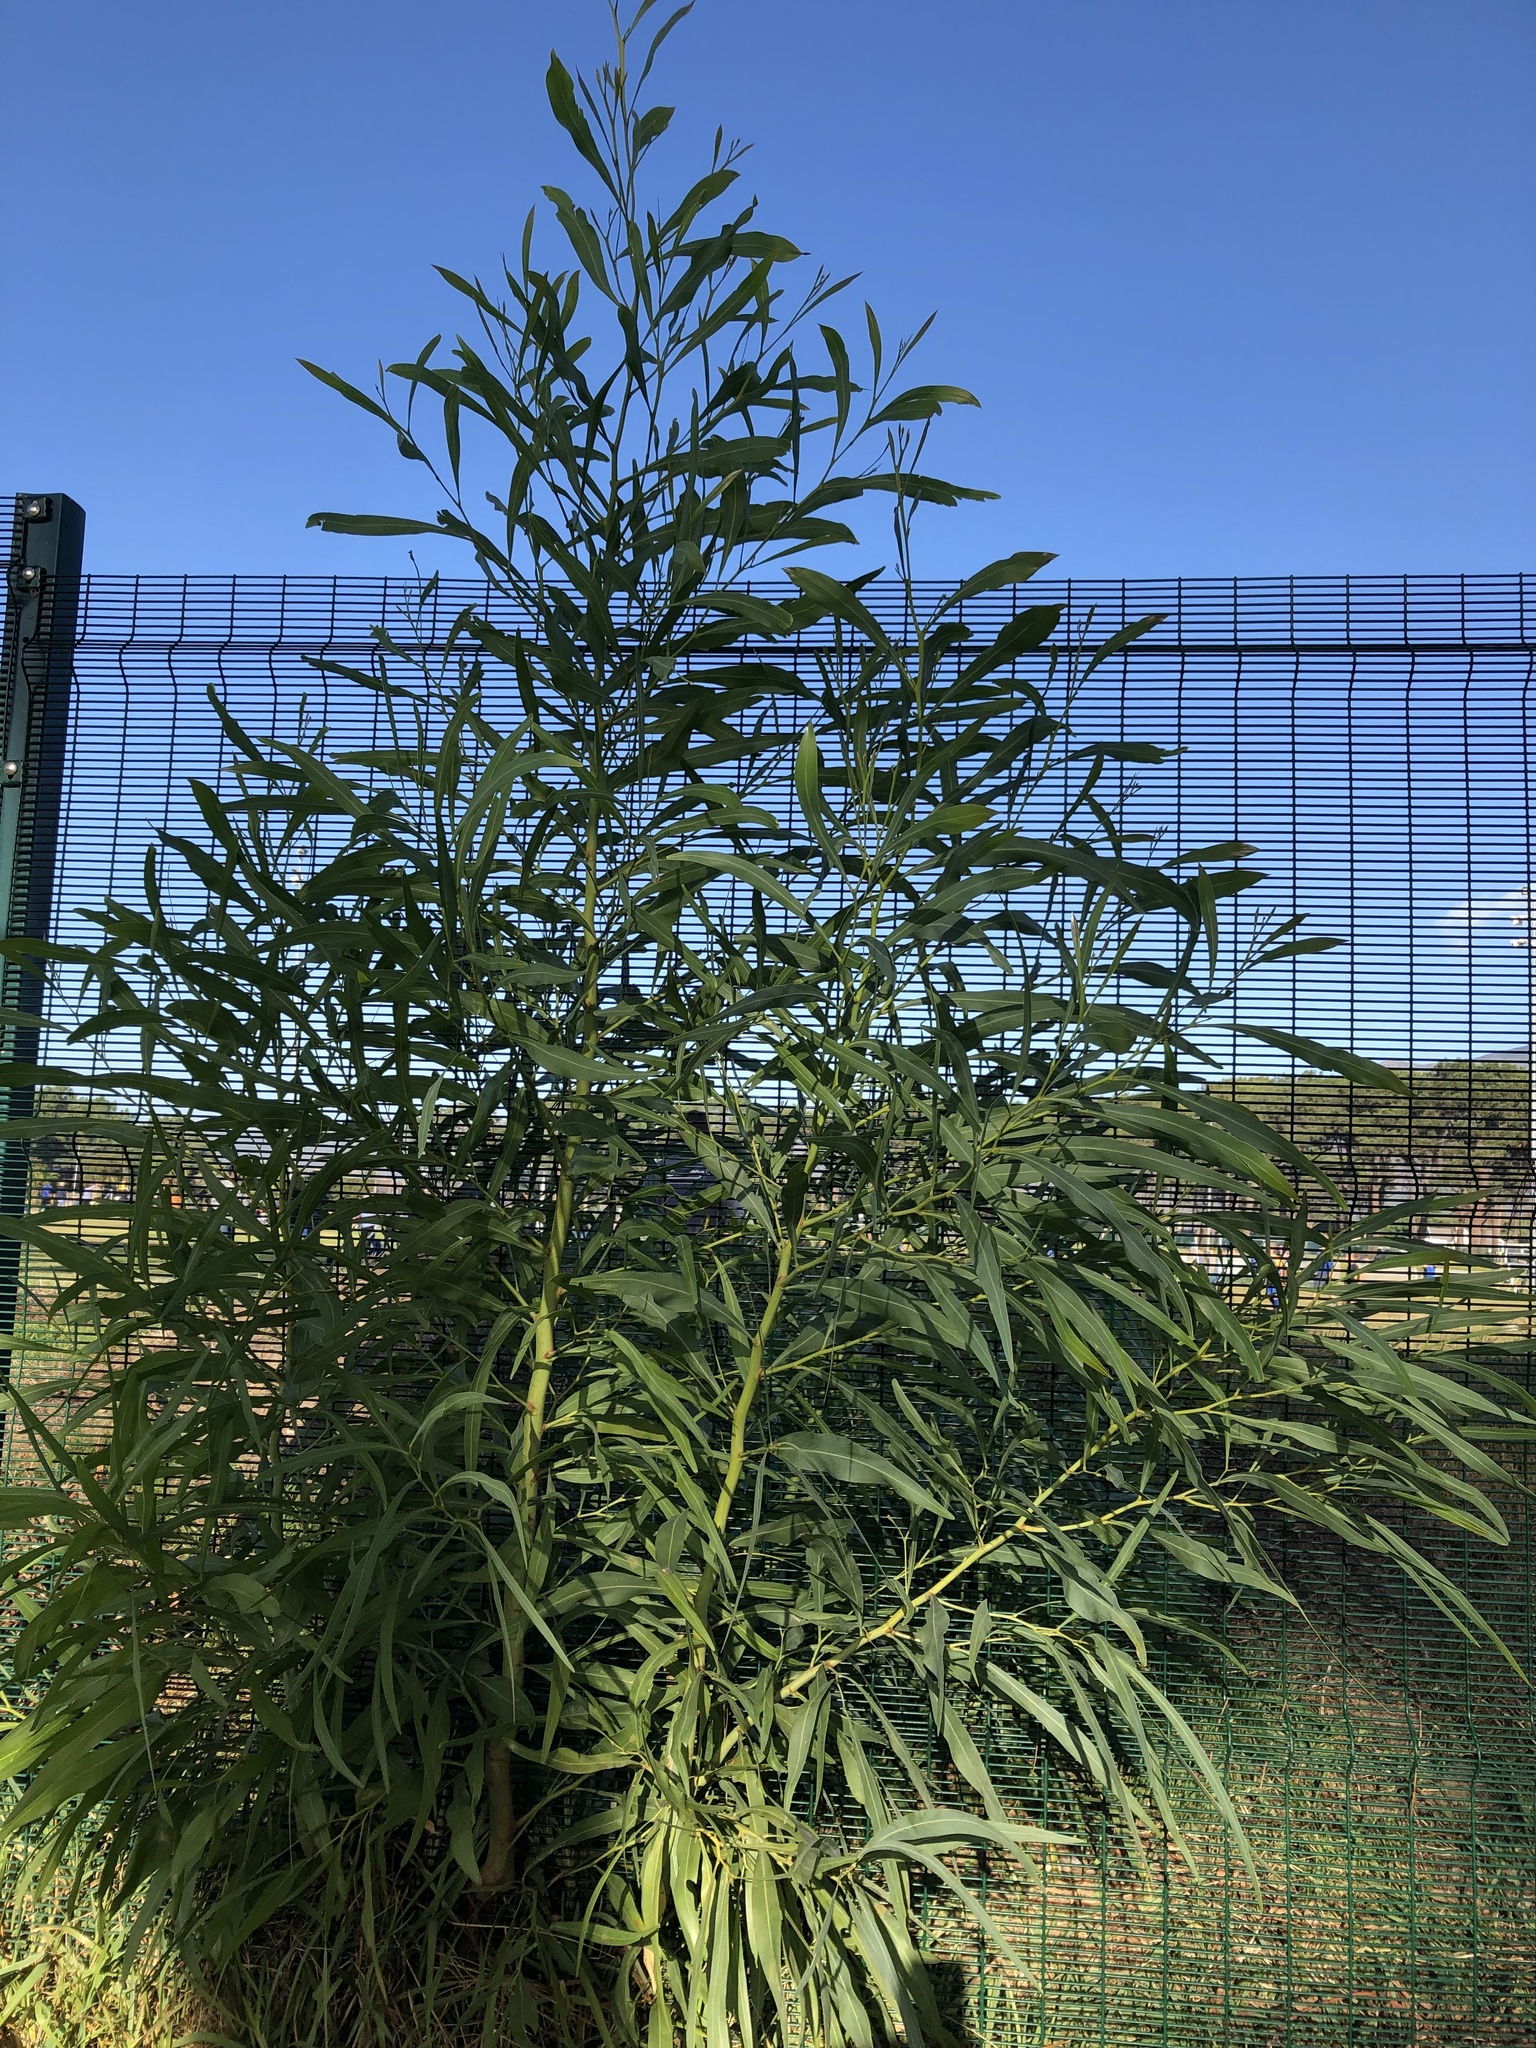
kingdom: Plantae
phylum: Tracheophyta
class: Magnoliopsida
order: Fabales
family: Fabaceae
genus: Acacia
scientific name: Acacia saligna
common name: Orange wattle
